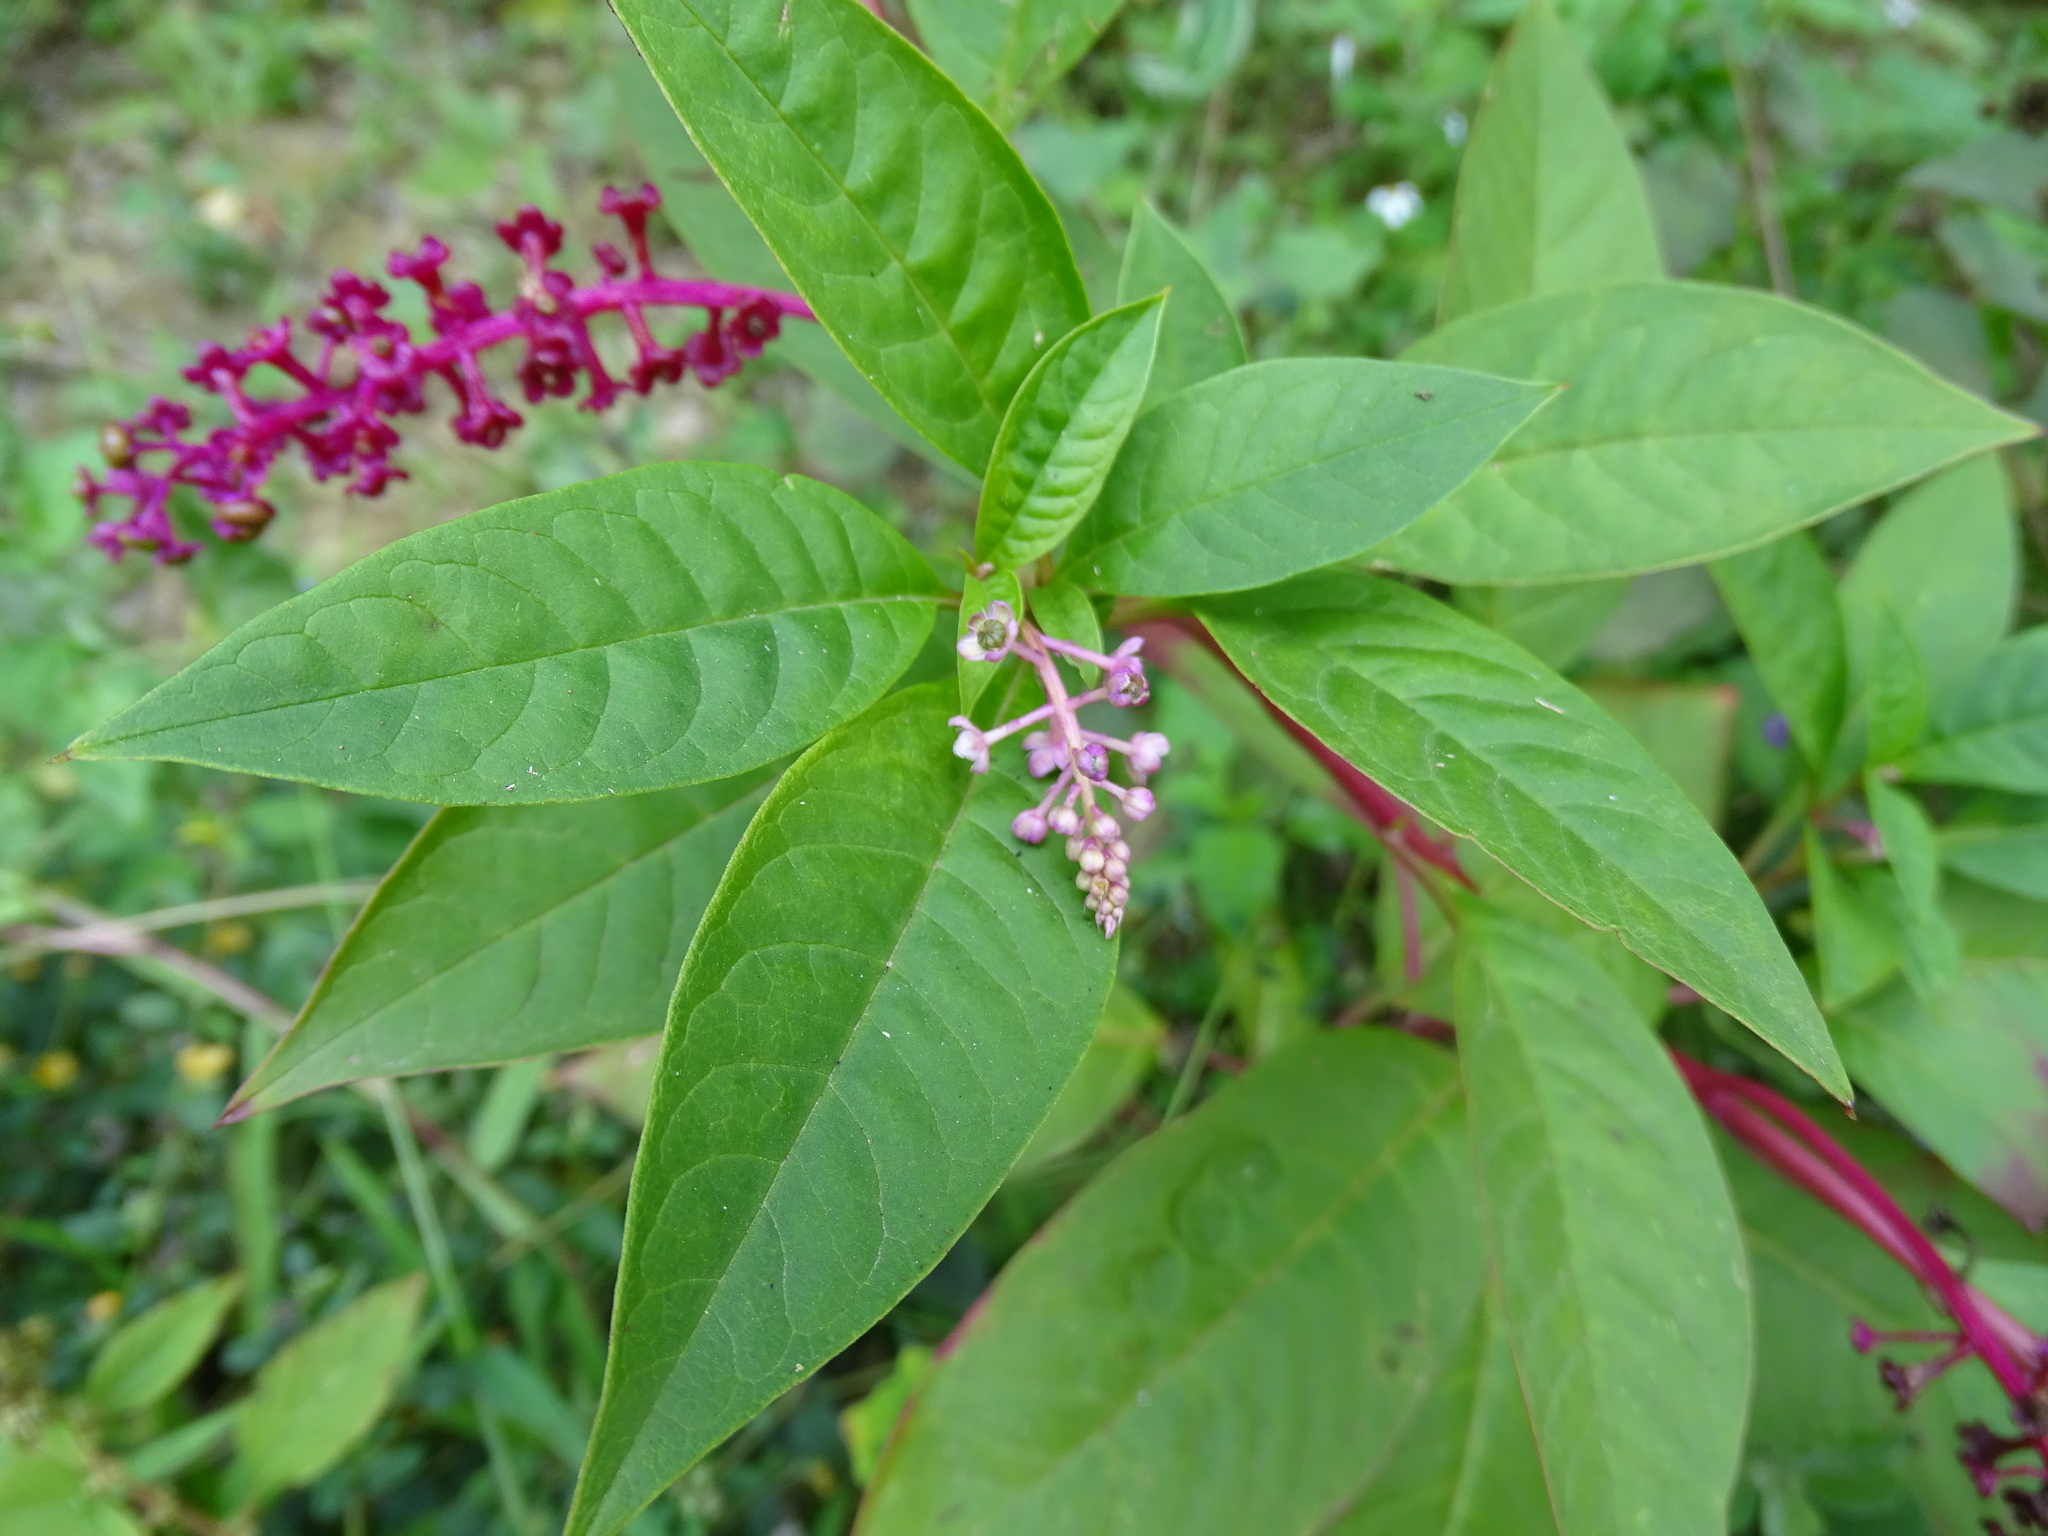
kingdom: Plantae
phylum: Tracheophyta
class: Magnoliopsida
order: Caryophyllales
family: Phytolaccaceae
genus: Phytolacca
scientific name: Phytolacca americana
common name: American pokeweed
